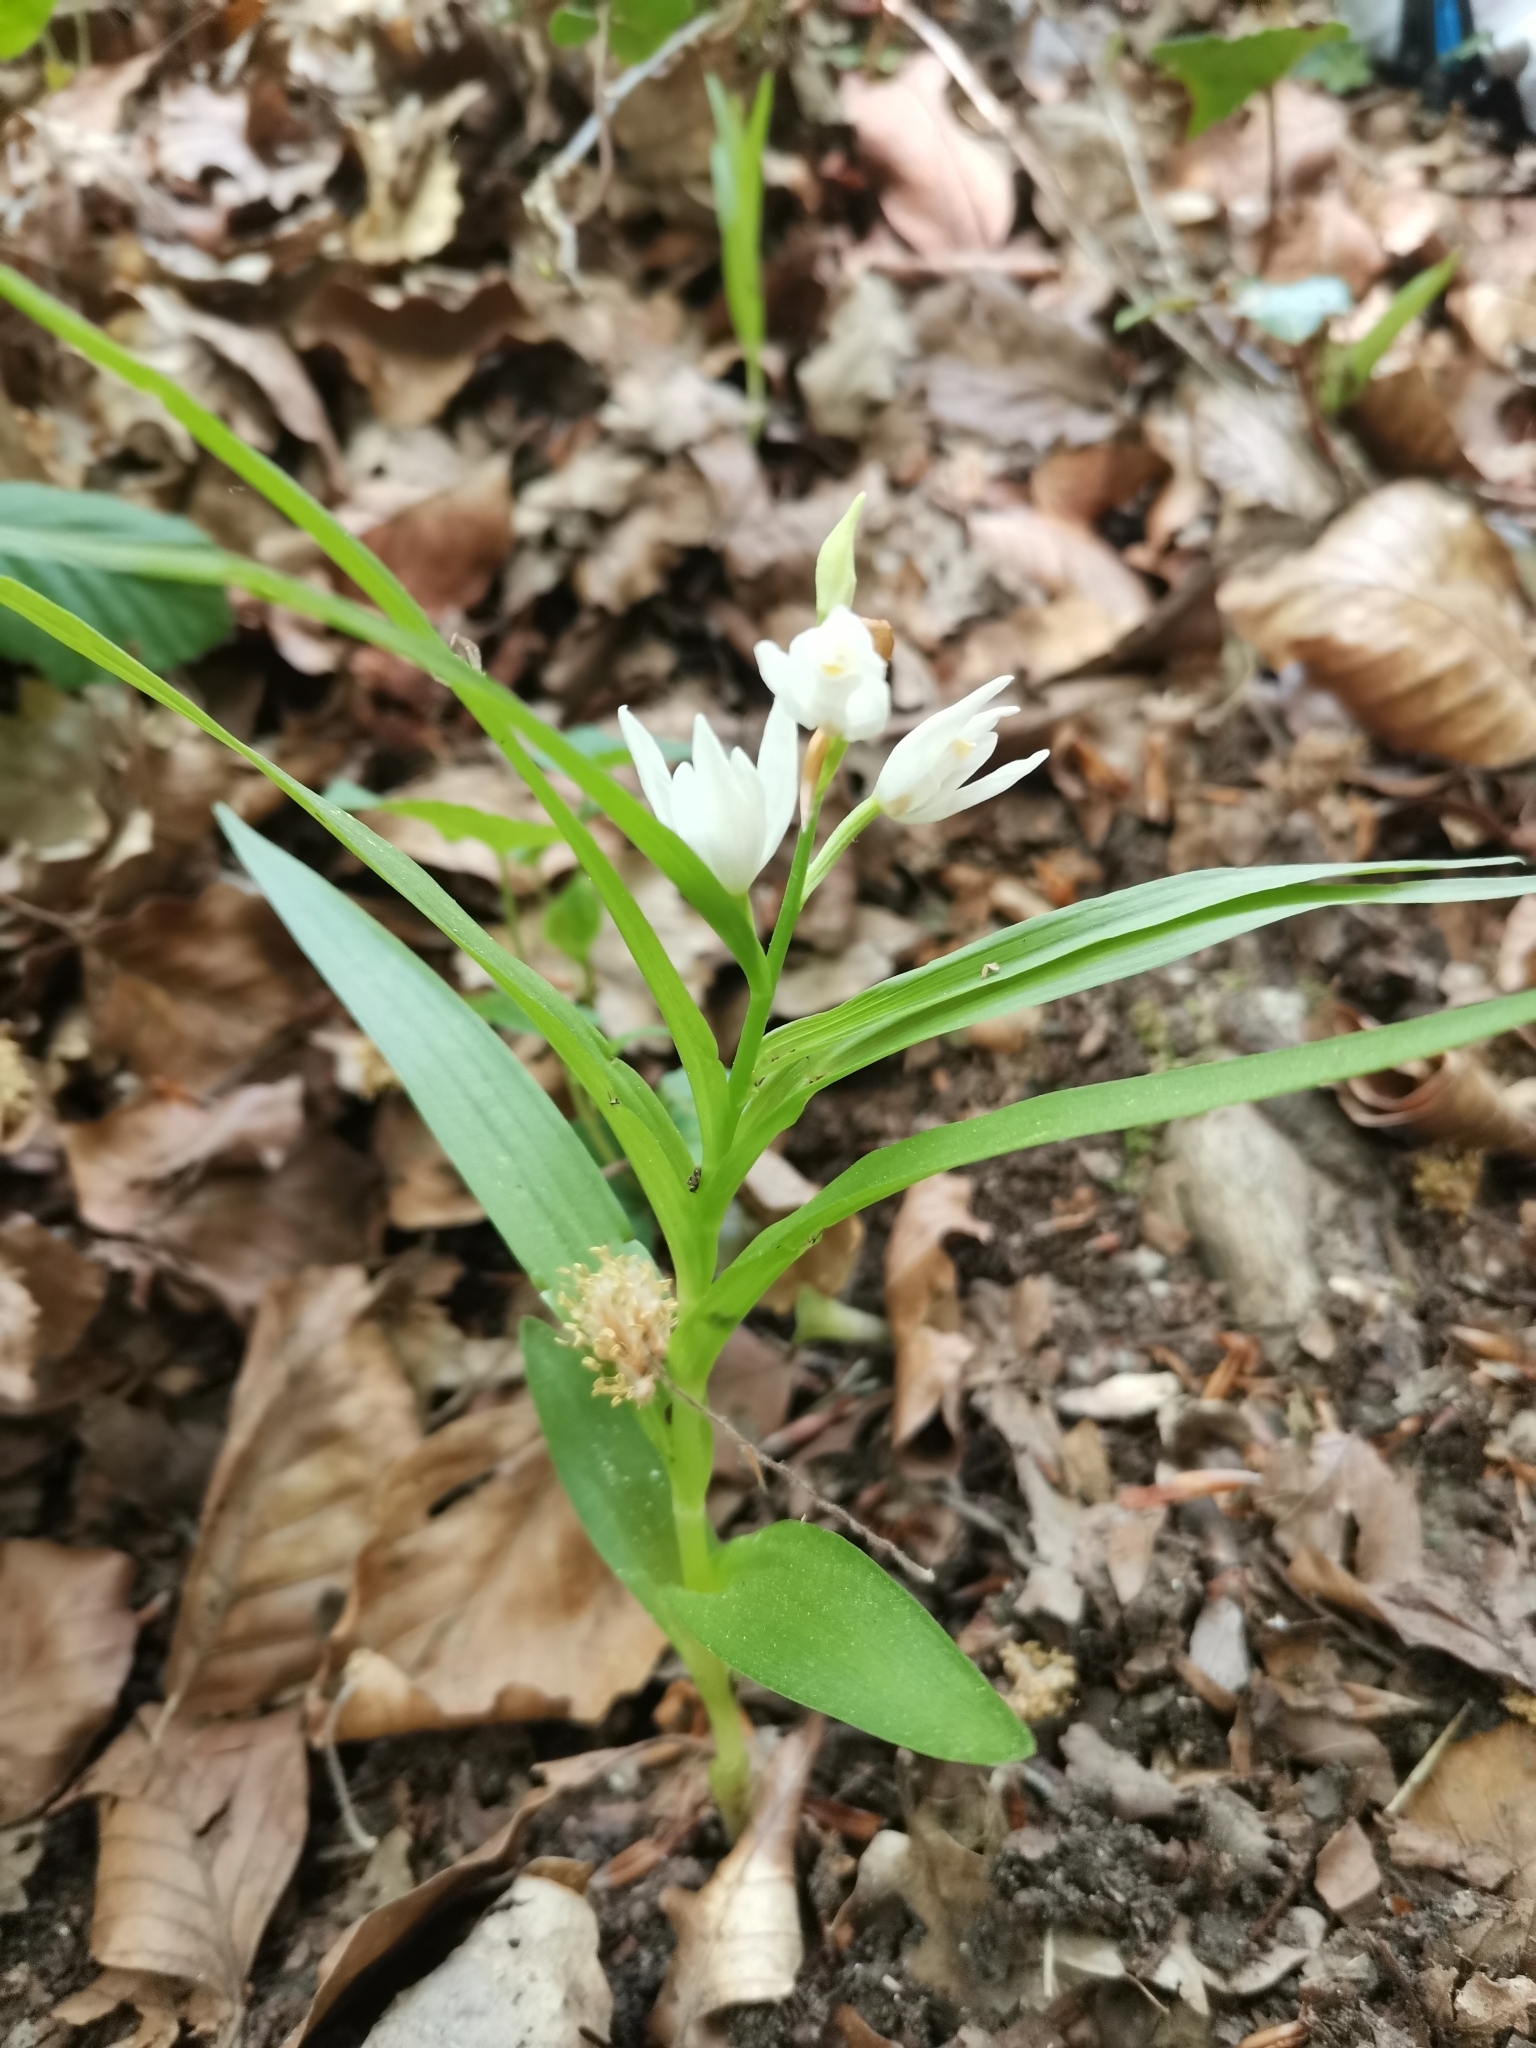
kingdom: Plantae
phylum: Tracheophyta
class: Liliopsida
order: Asparagales
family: Orchidaceae
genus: Cephalanthera
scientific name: Cephalanthera longifolia
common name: Narrow-leaved helleborine
